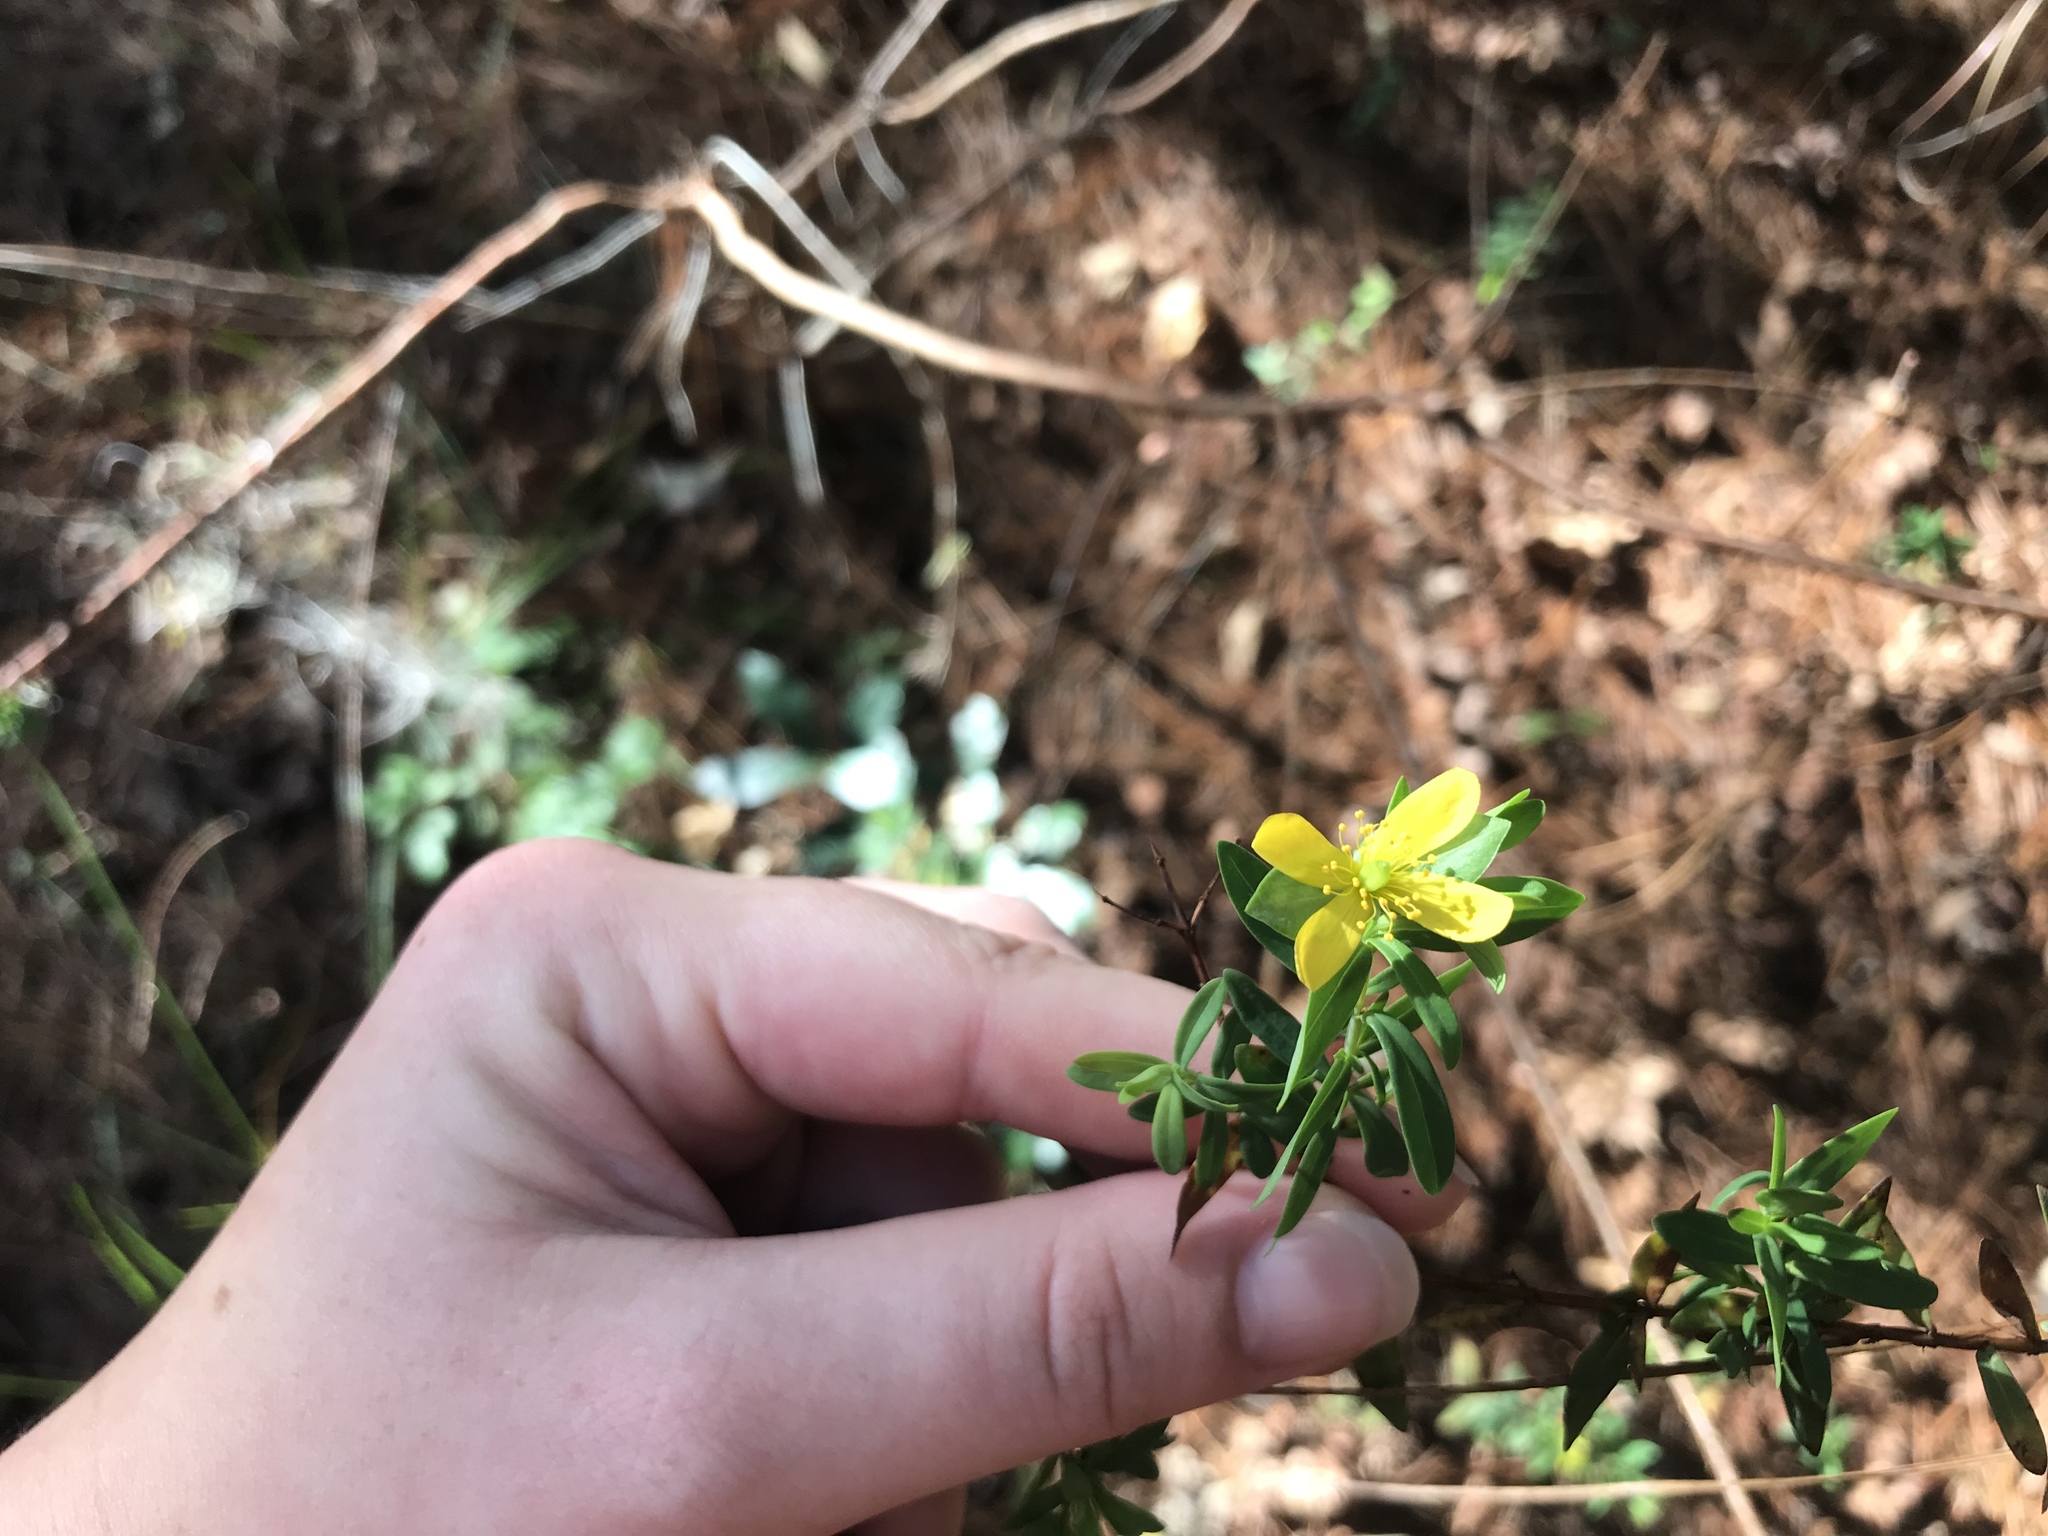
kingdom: Plantae
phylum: Tracheophyta
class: Magnoliopsida
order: Malpighiales
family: Hypericaceae
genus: Hypericum
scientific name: Hypericum hypericoides
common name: St. andrew's cross
